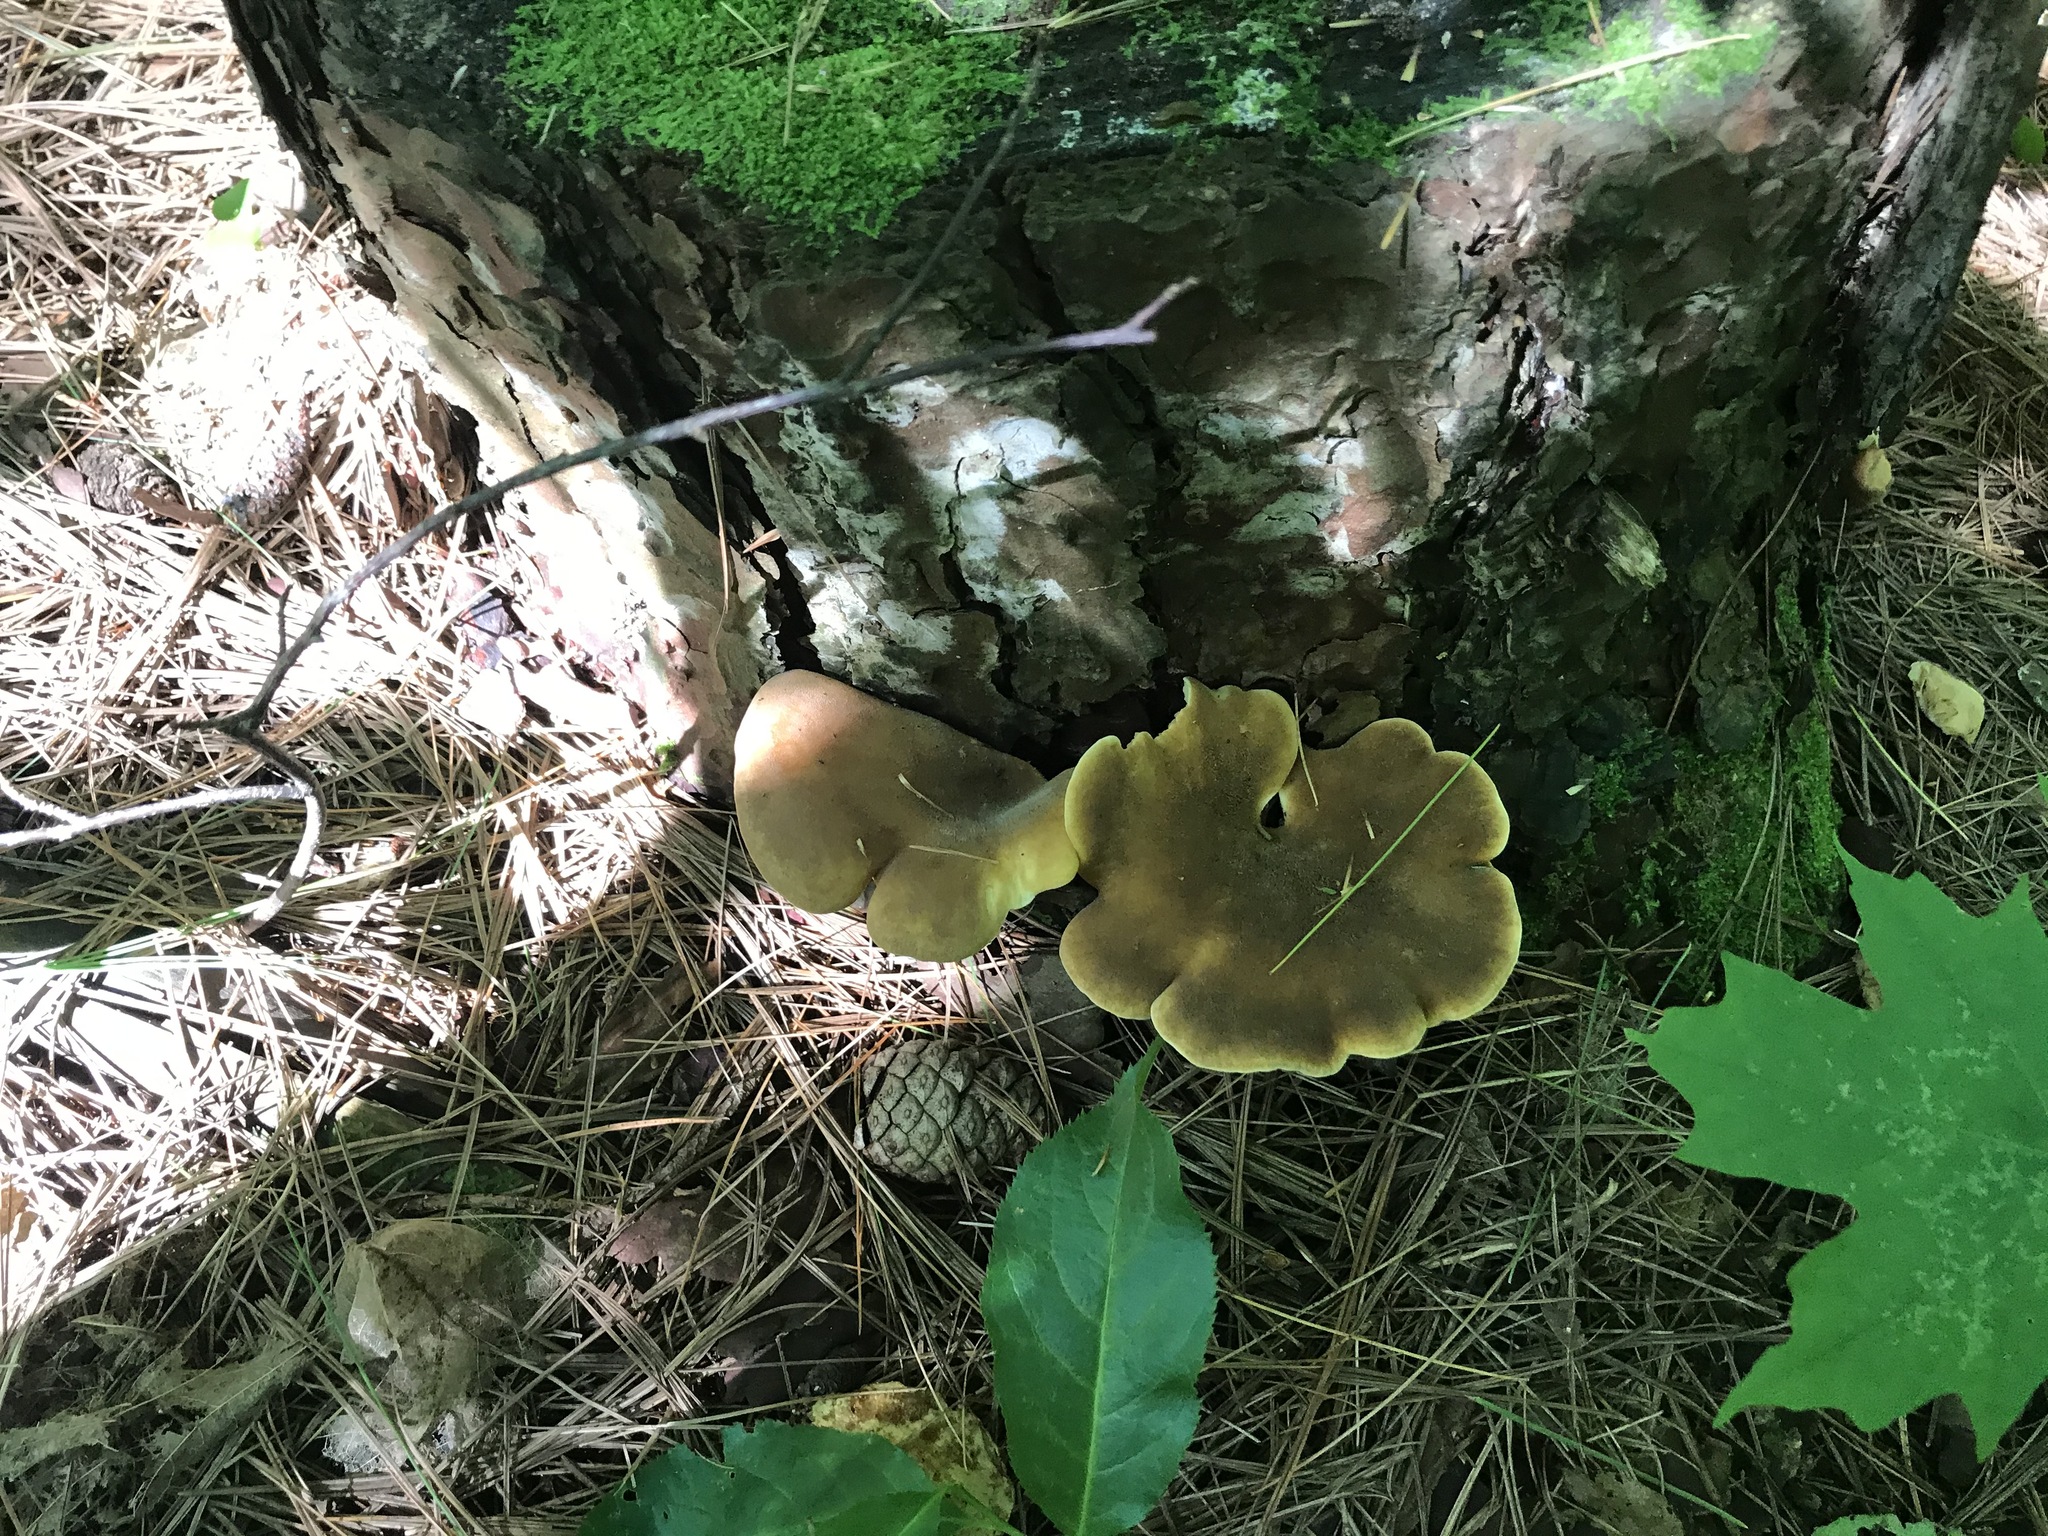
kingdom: Fungi
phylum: Basidiomycota
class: Agaricomycetes
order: Boletales
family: Tapinellaceae
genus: Tapinella
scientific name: Tapinella atrotomentosa
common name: Velvet rollrim
